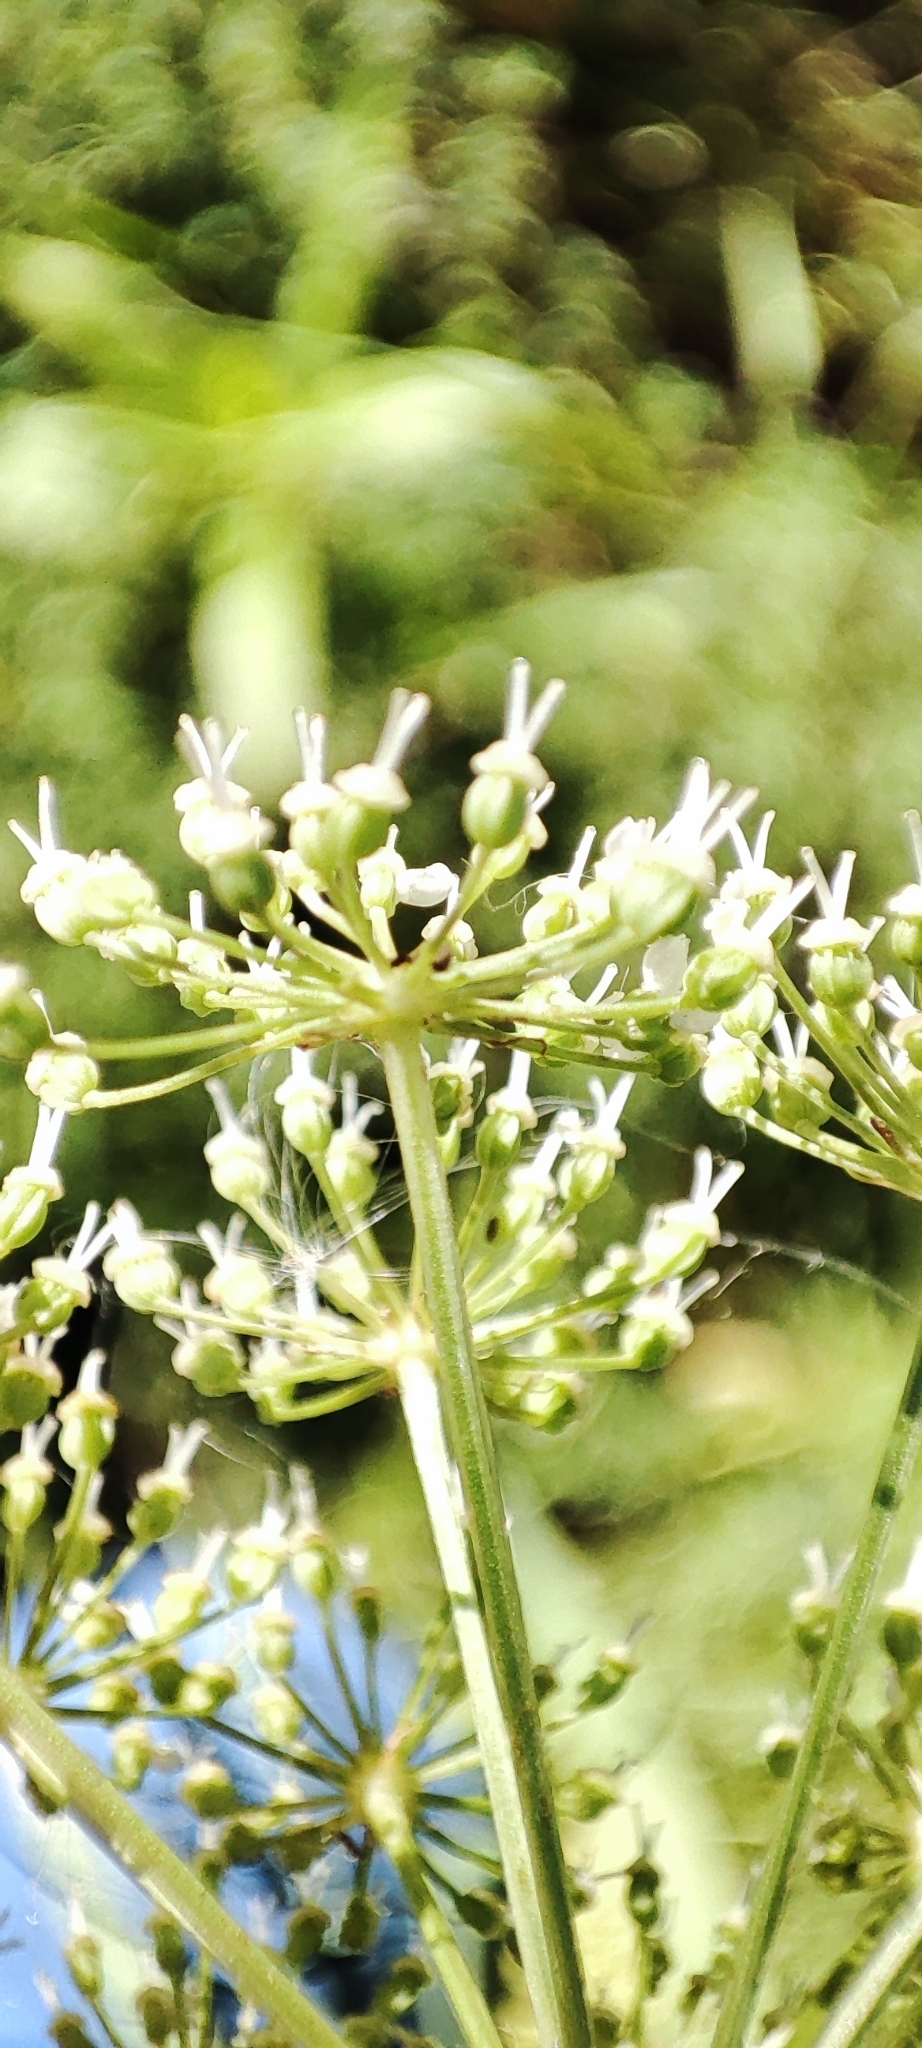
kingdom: Plantae
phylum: Tracheophyta
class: Magnoliopsida
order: Apiales
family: Apiaceae
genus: Cenolophium
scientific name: Cenolophium fischeri
